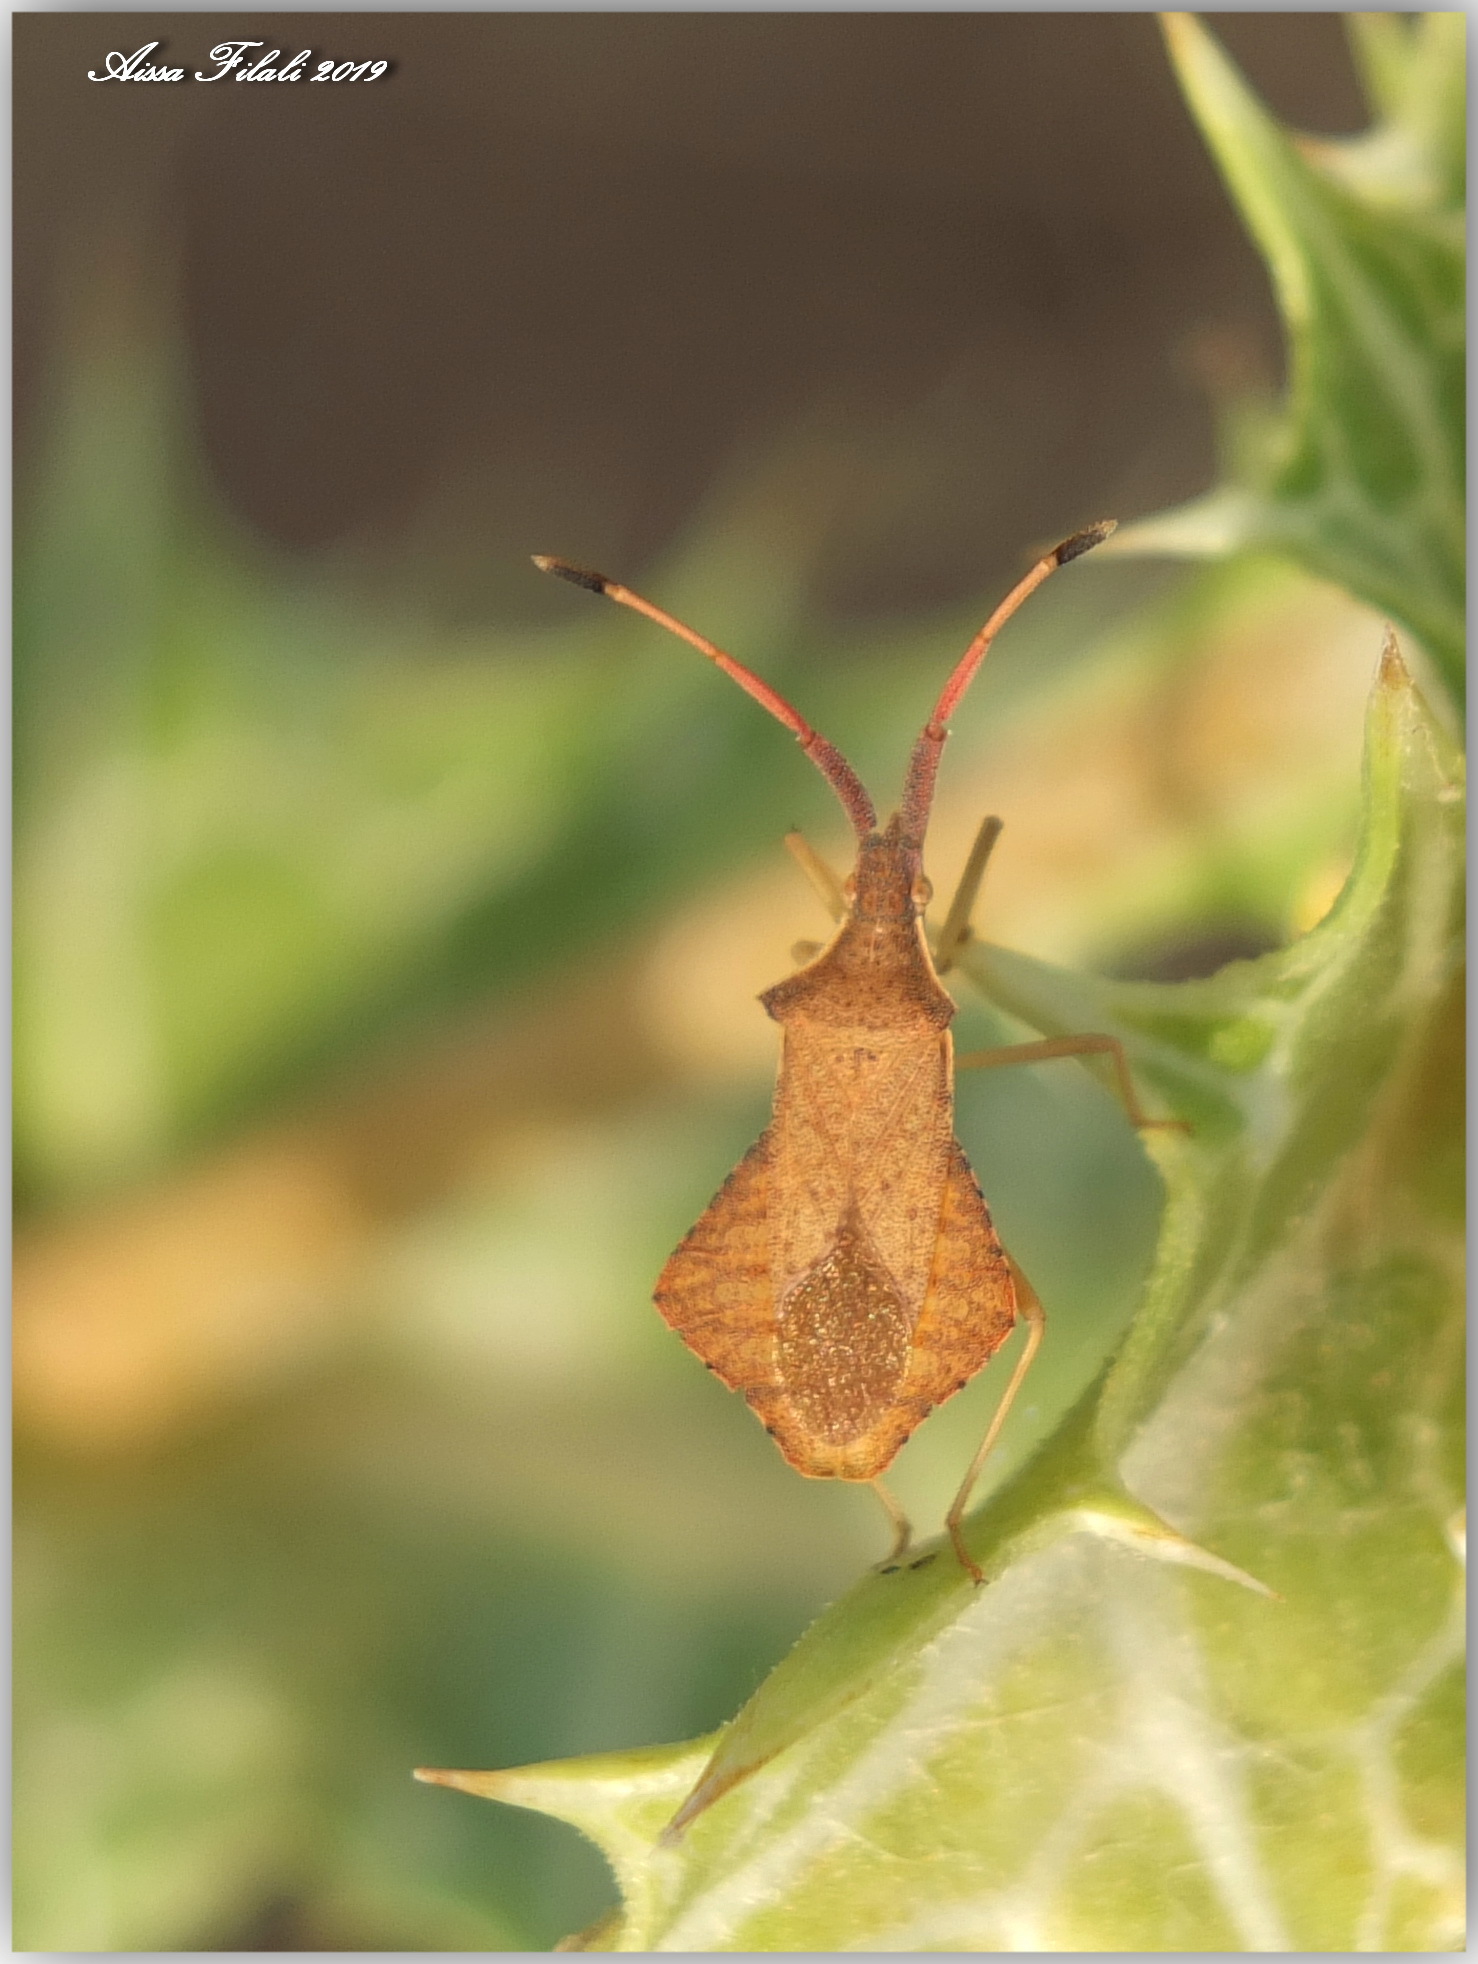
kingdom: Animalia
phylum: Arthropoda
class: Insecta
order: Hemiptera
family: Coreidae
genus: Syromastus
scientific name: Syromastus rhombeus
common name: Rhombic leatherbug
